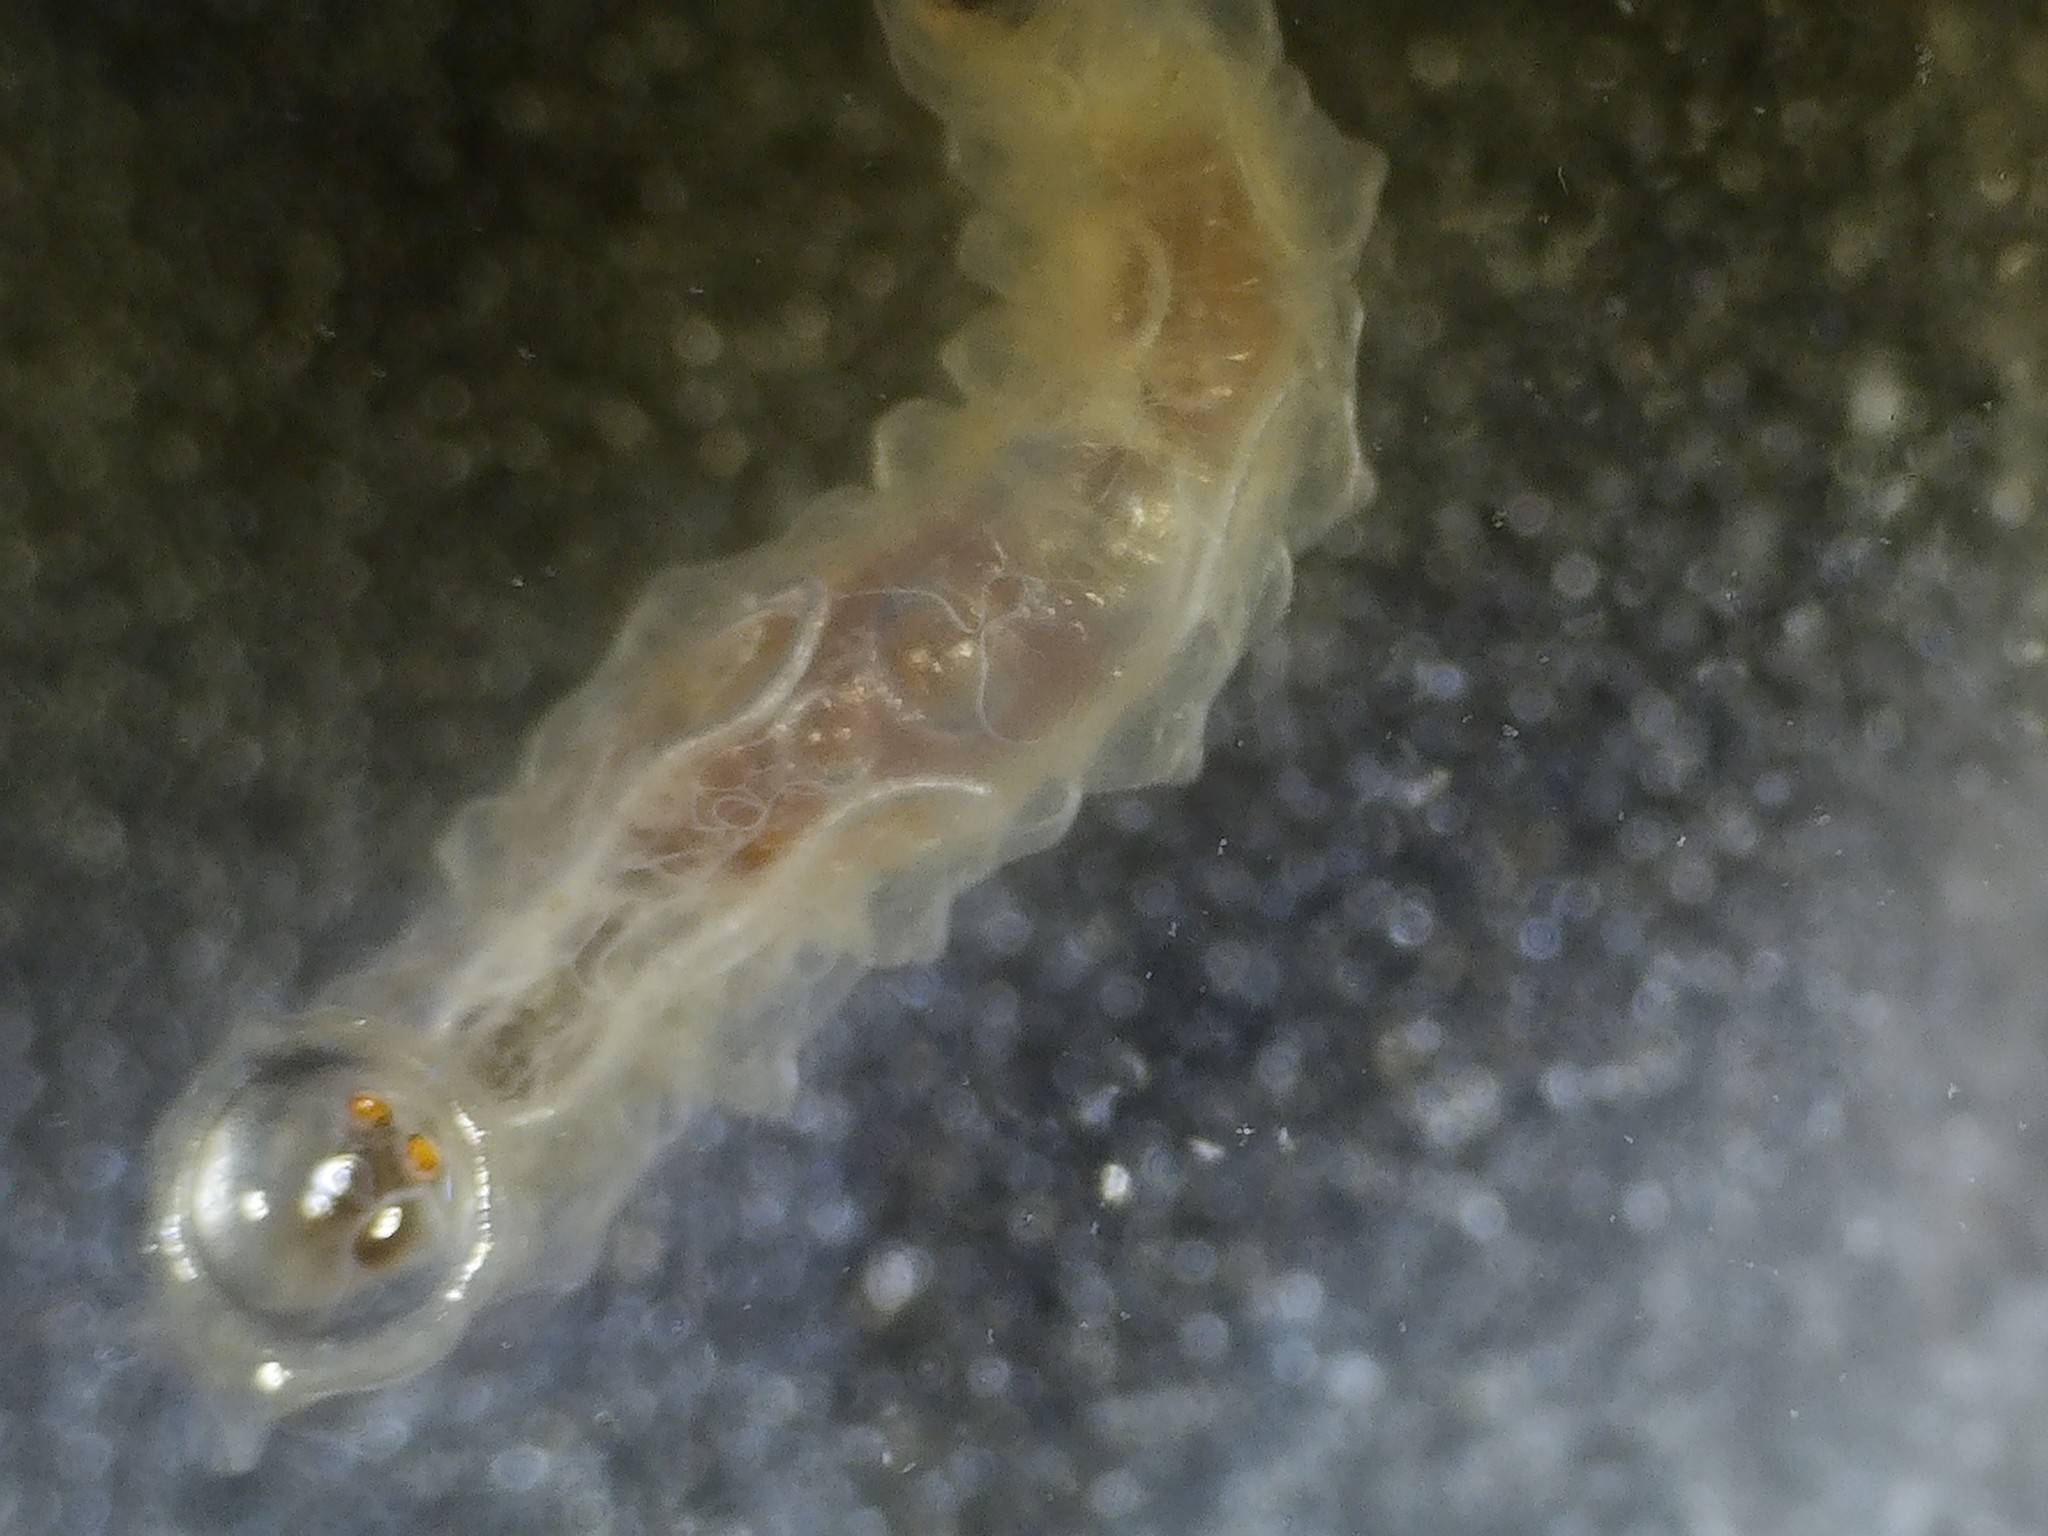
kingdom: Animalia
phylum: Arthropoda
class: Insecta
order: Diptera
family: Sarcophagidae
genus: Fletcherimyia
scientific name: Fletcherimyia fletcheri
